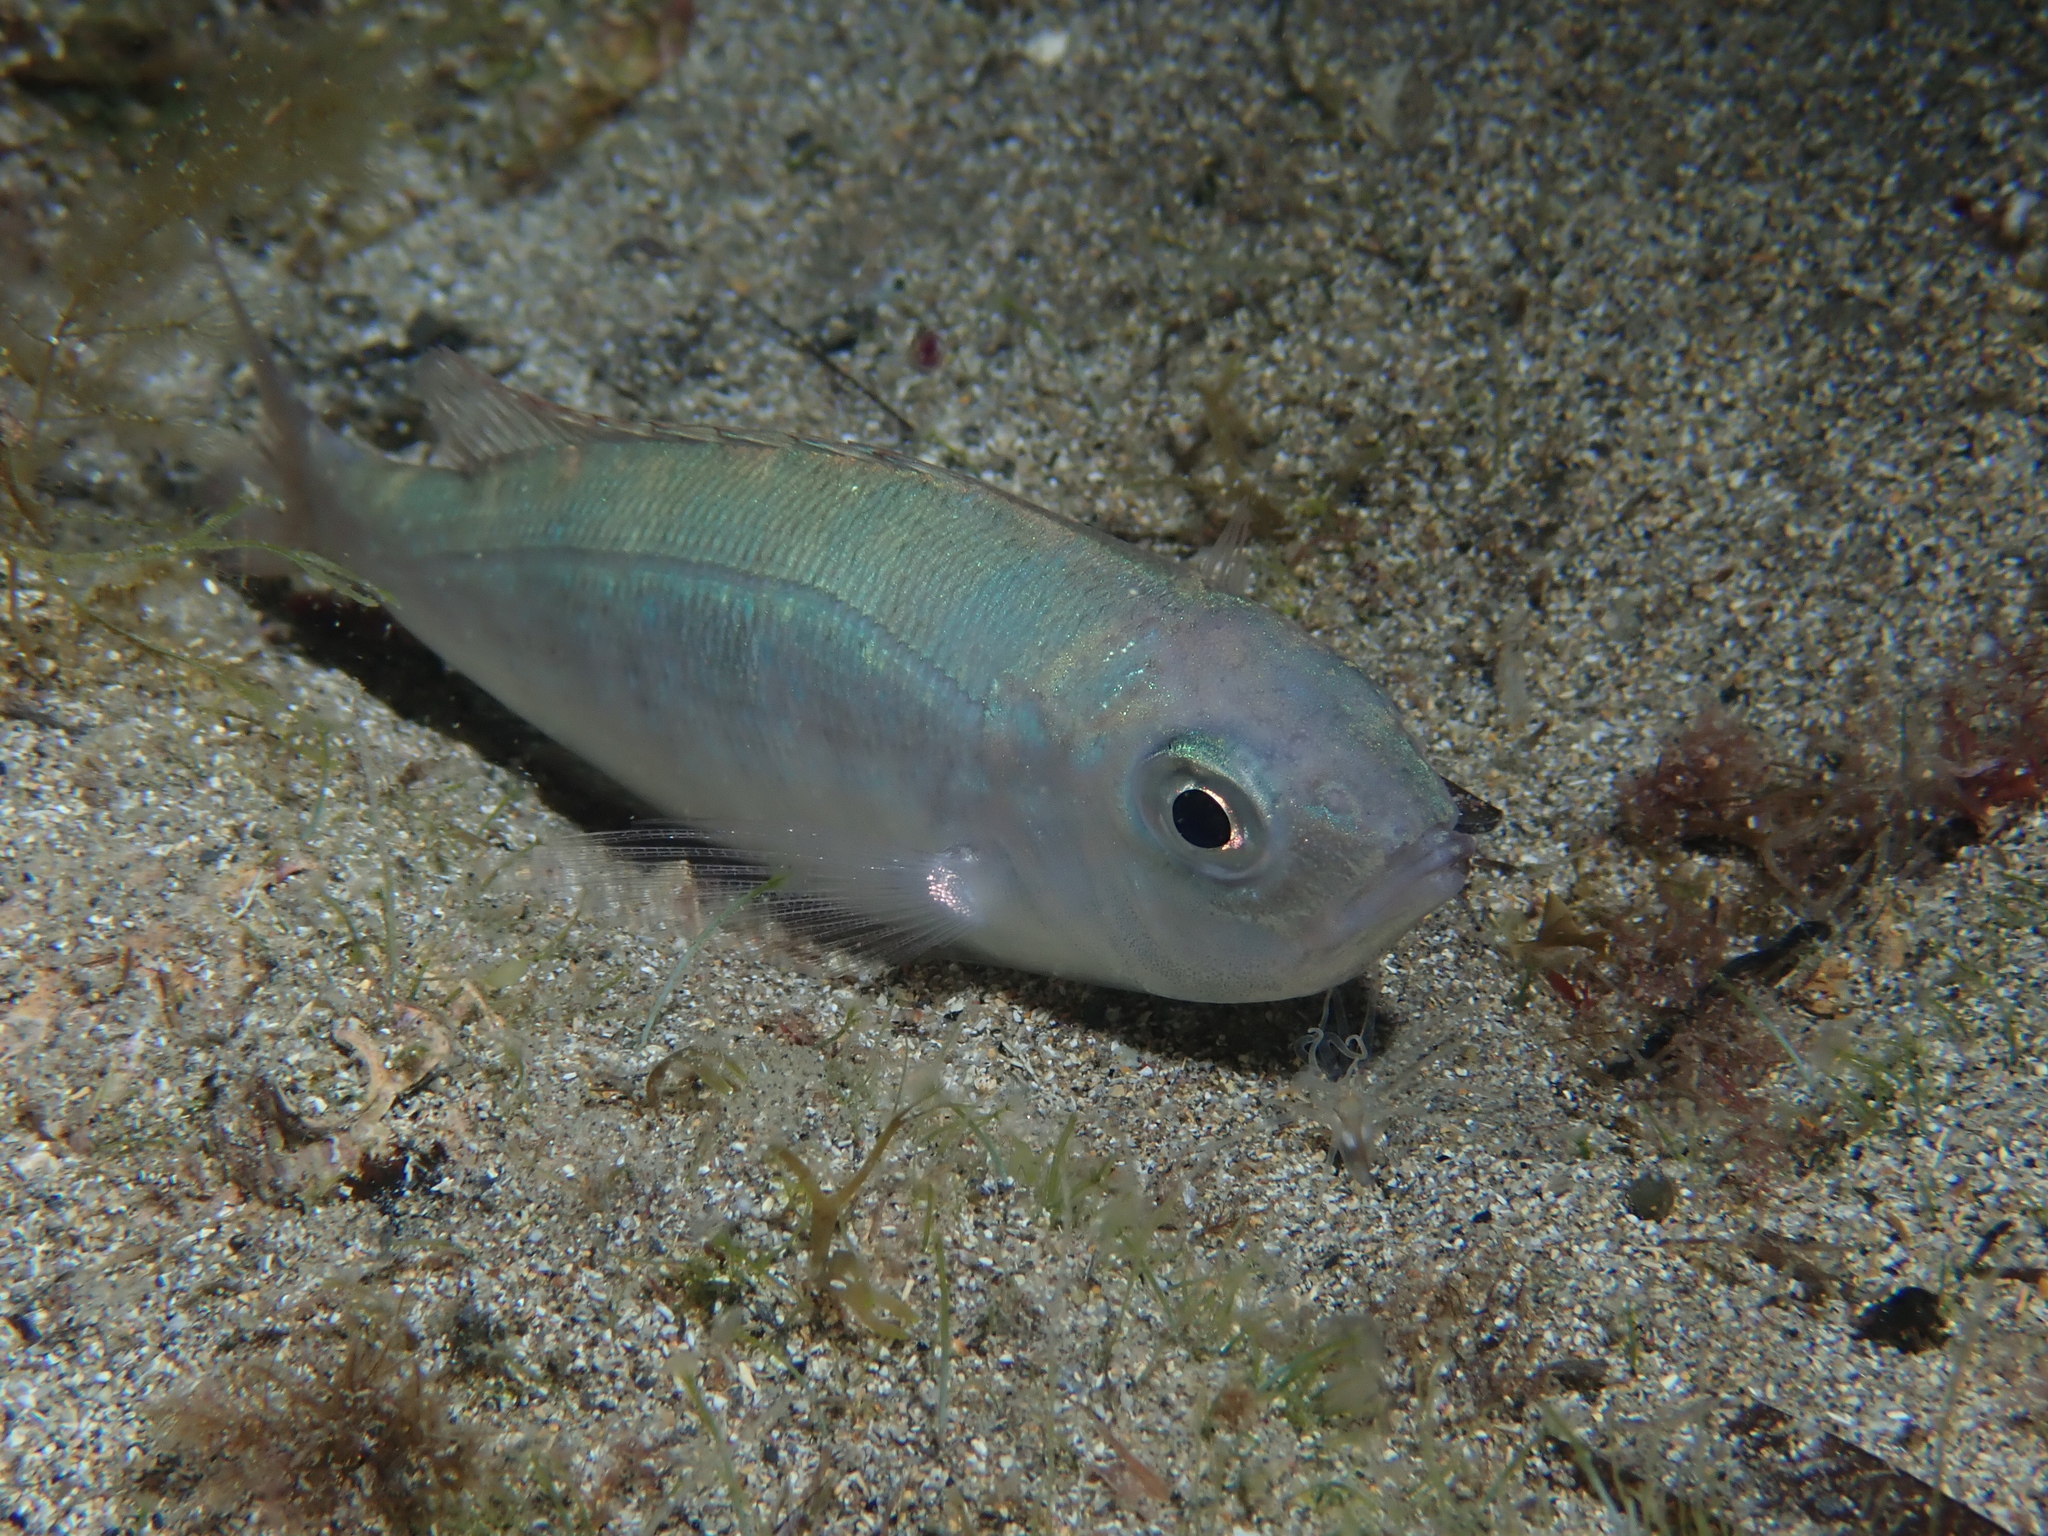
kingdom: Animalia
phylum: Chordata
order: Perciformes
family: Sparidae
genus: Spicara
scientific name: Spicara maena
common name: Blotched picarel
